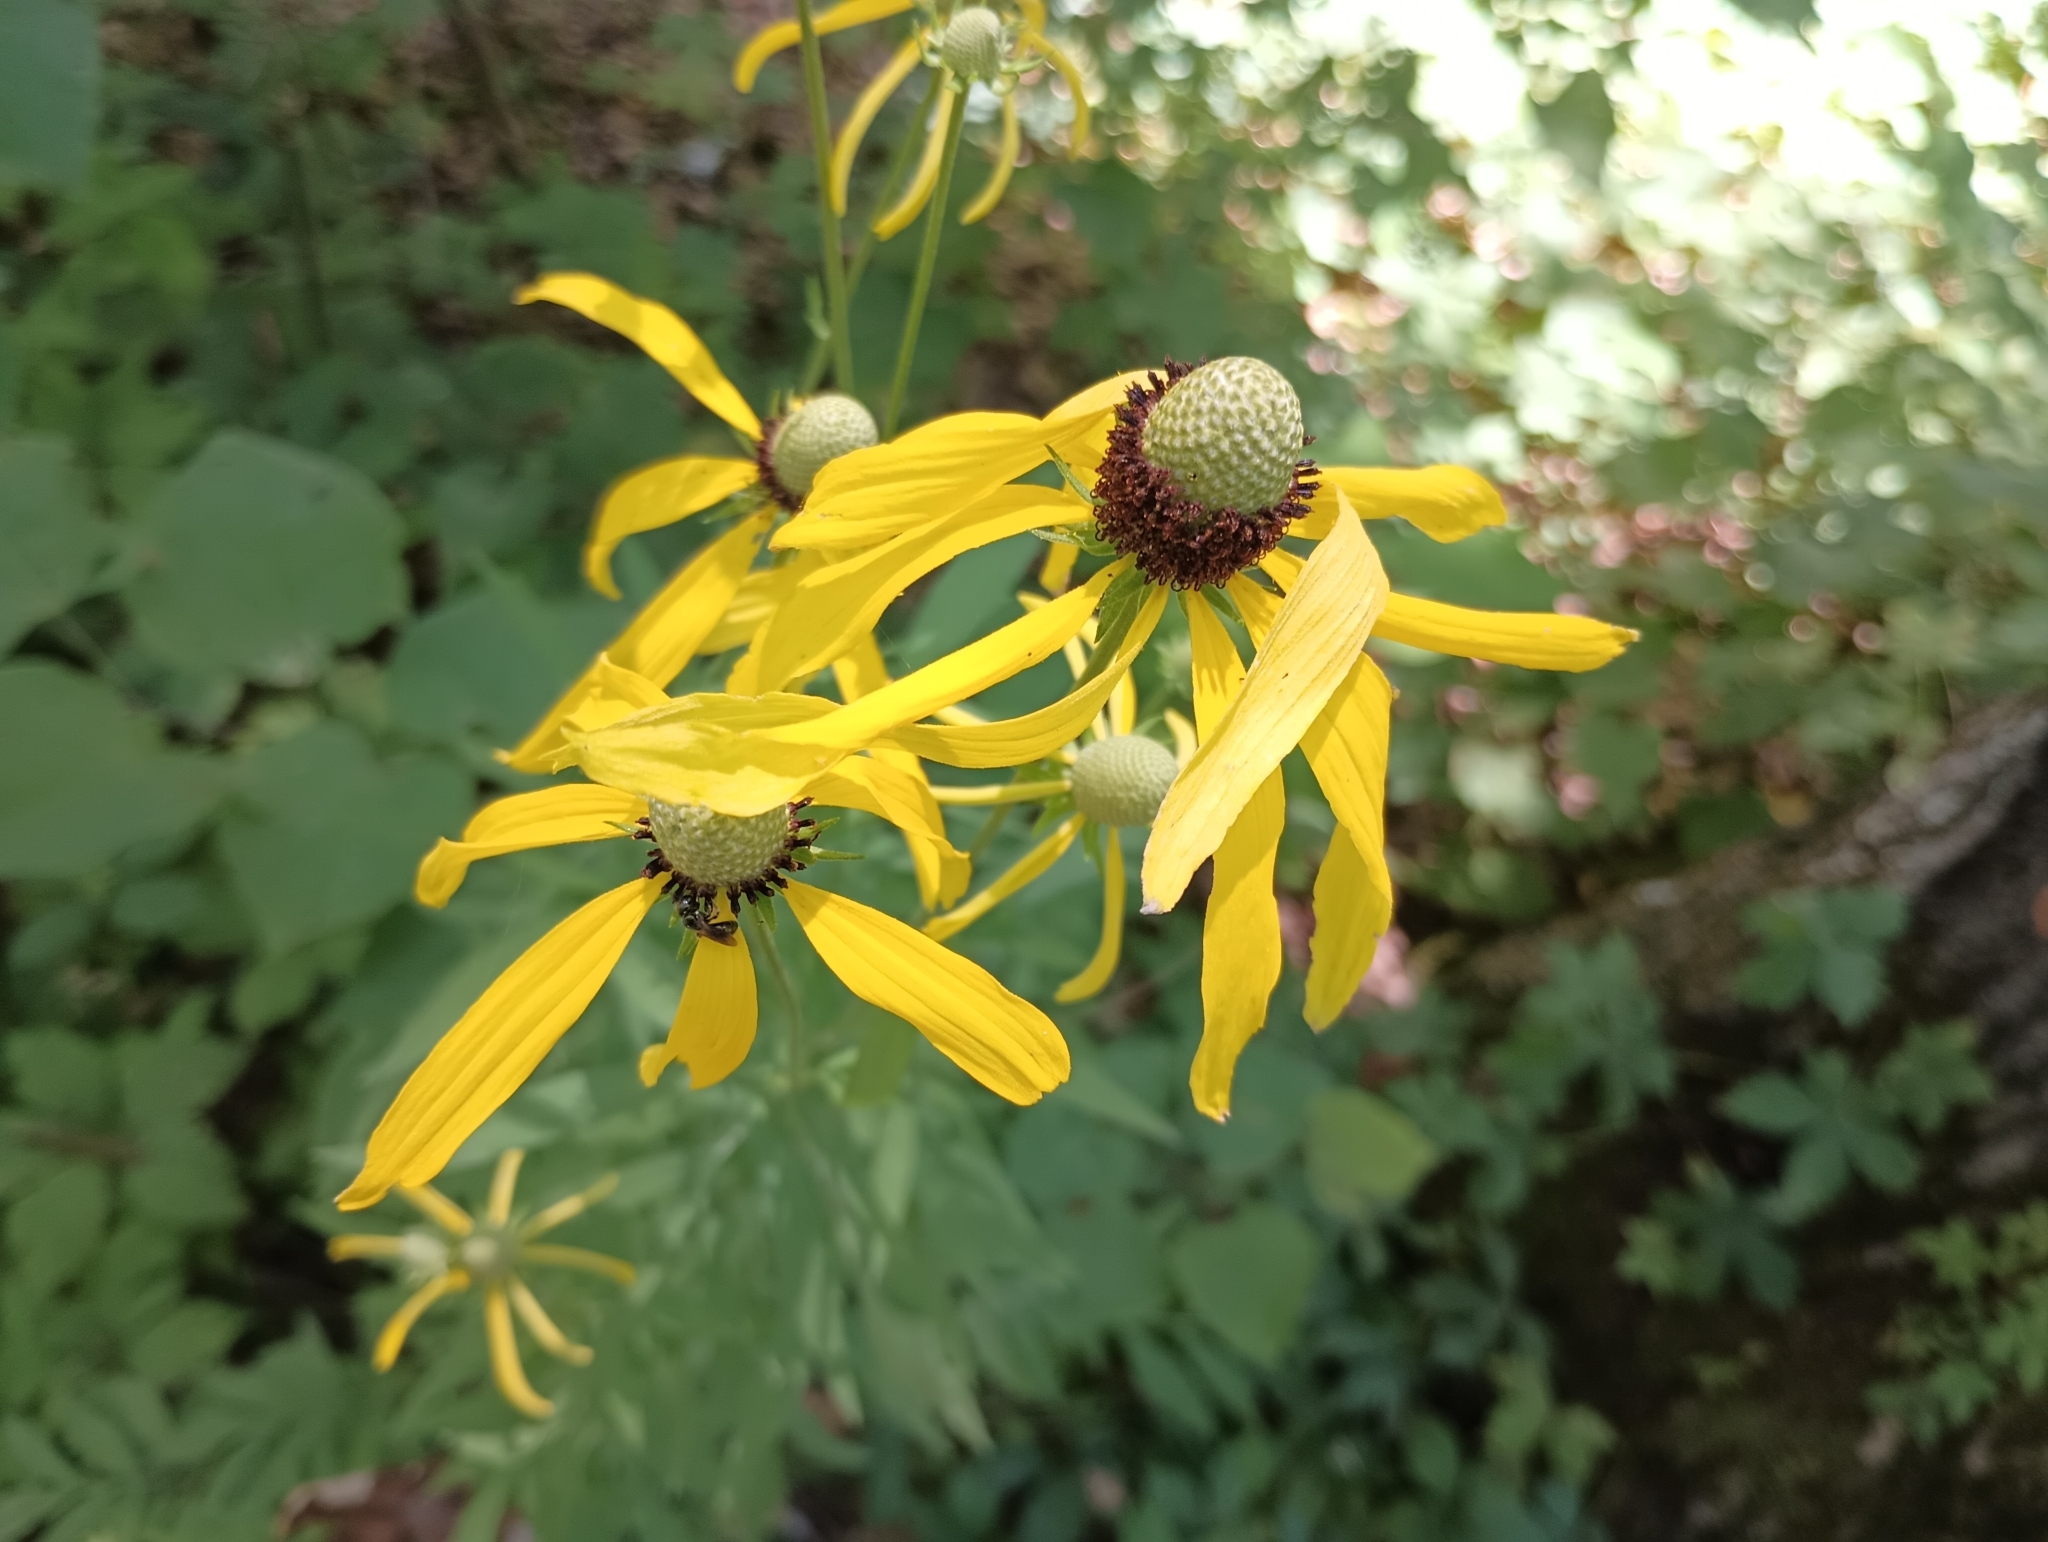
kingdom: Plantae
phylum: Tracheophyta
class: Magnoliopsida
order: Asterales
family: Asteraceae
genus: Ratibida
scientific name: Ratibida pinnata
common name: Drooping prairie-coneflower
